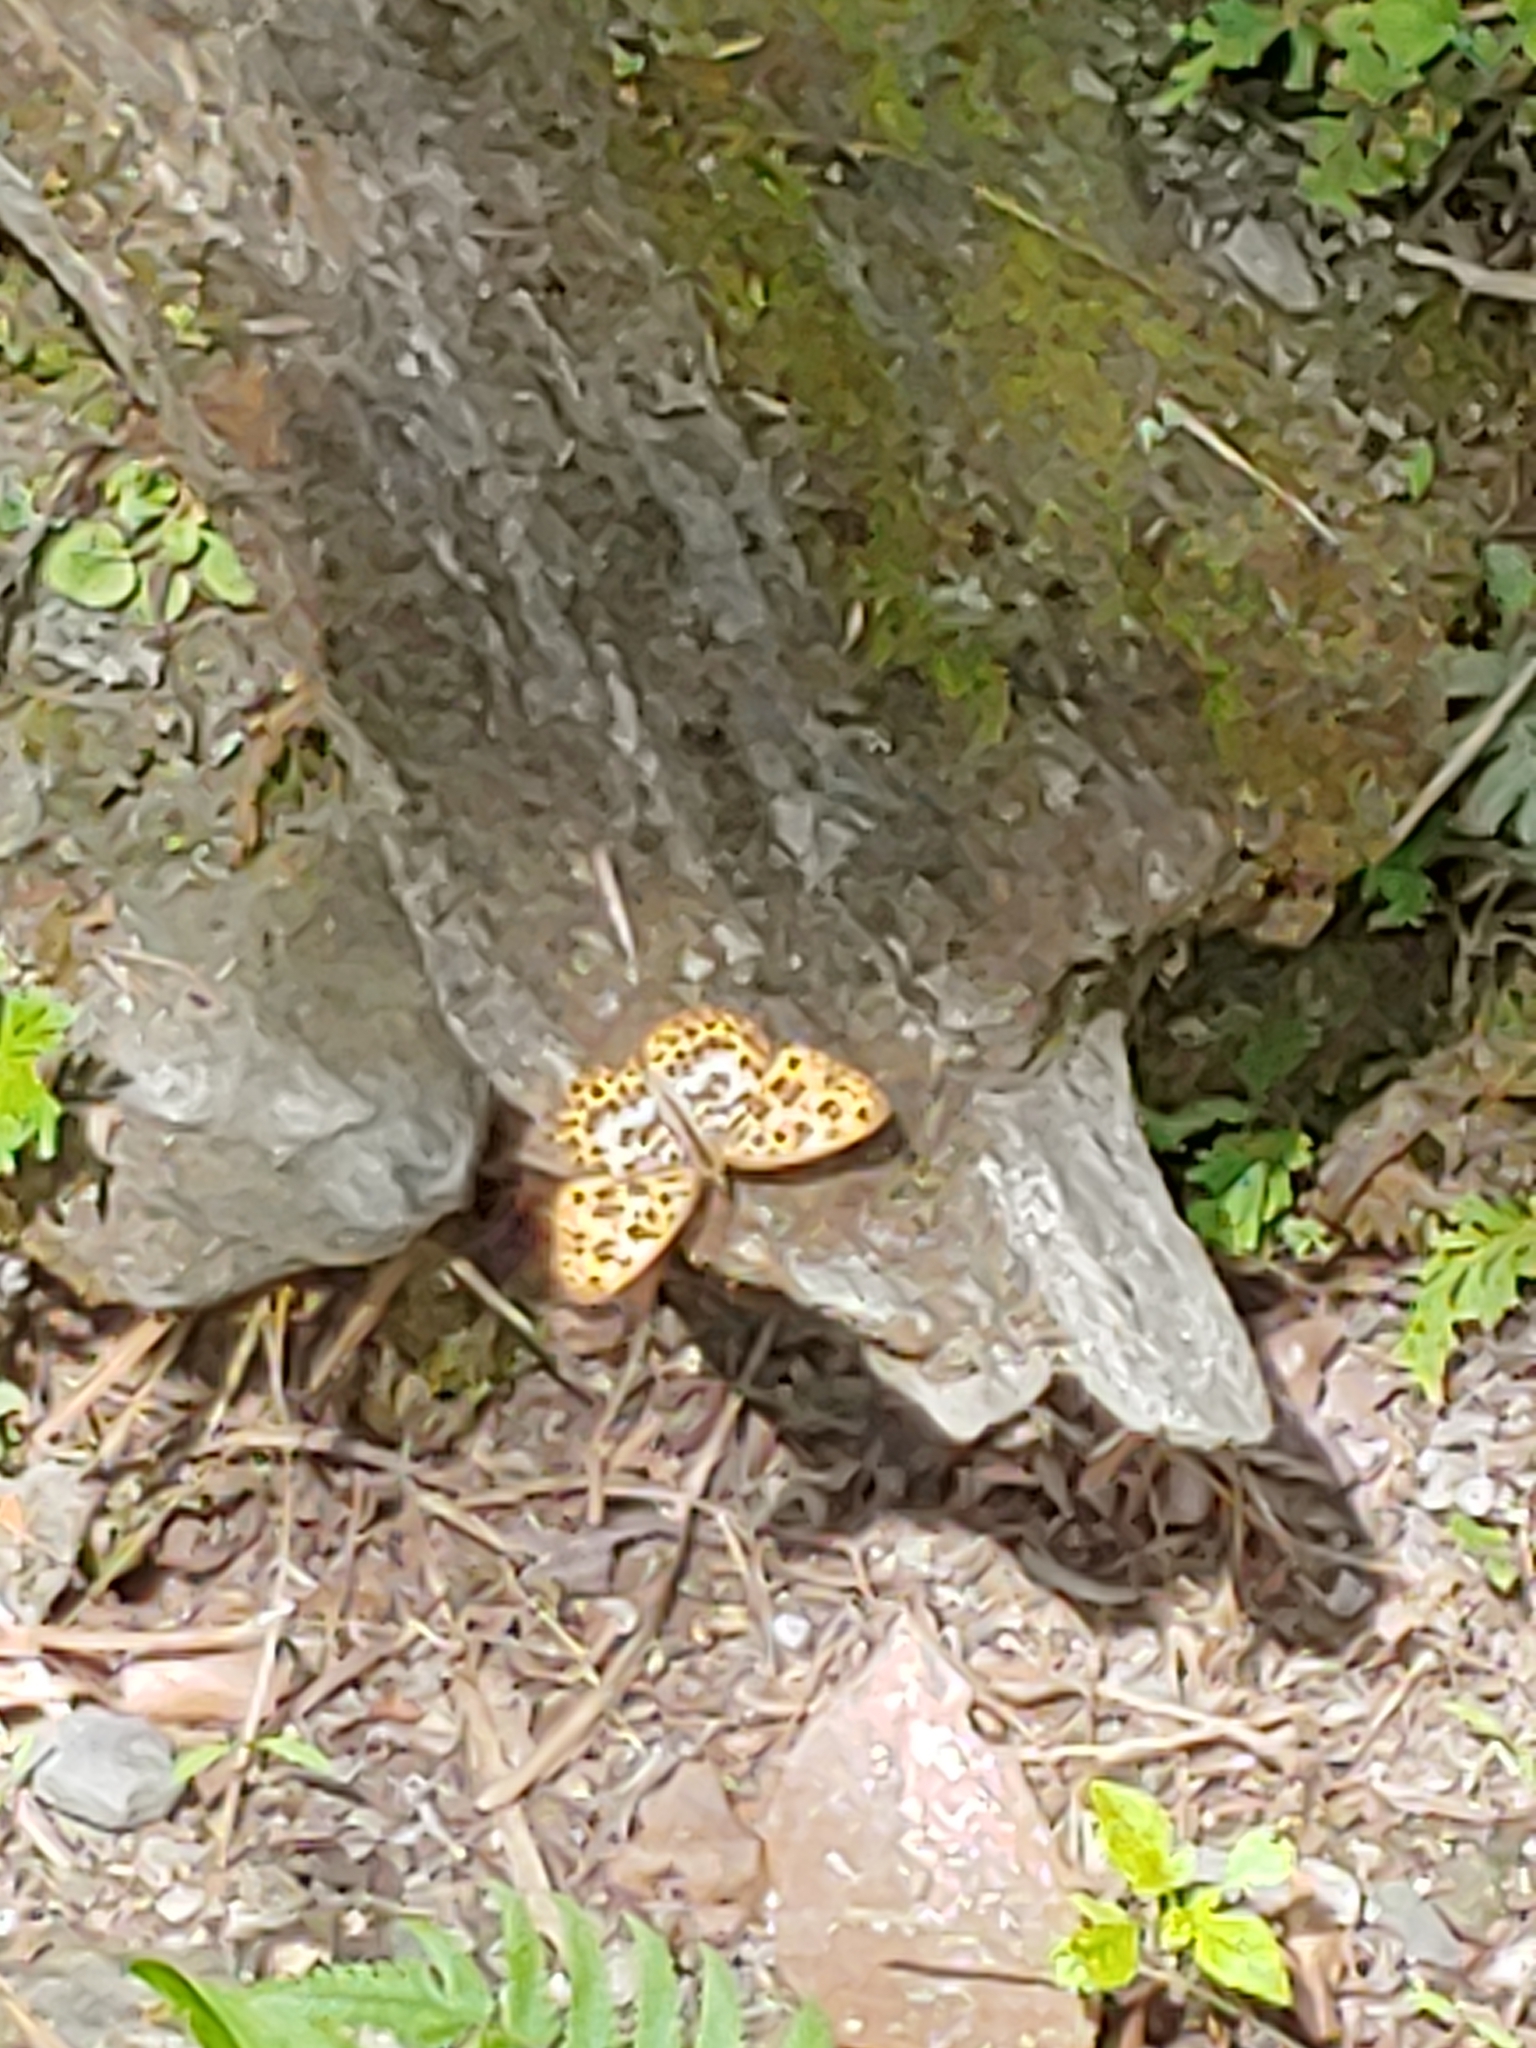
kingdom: Animalia
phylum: Arthropoda
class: Insecta
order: Lepidoptera
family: Nymphalidae
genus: Timelaea
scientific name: Timelaea albescens
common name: Beautiful leopard
